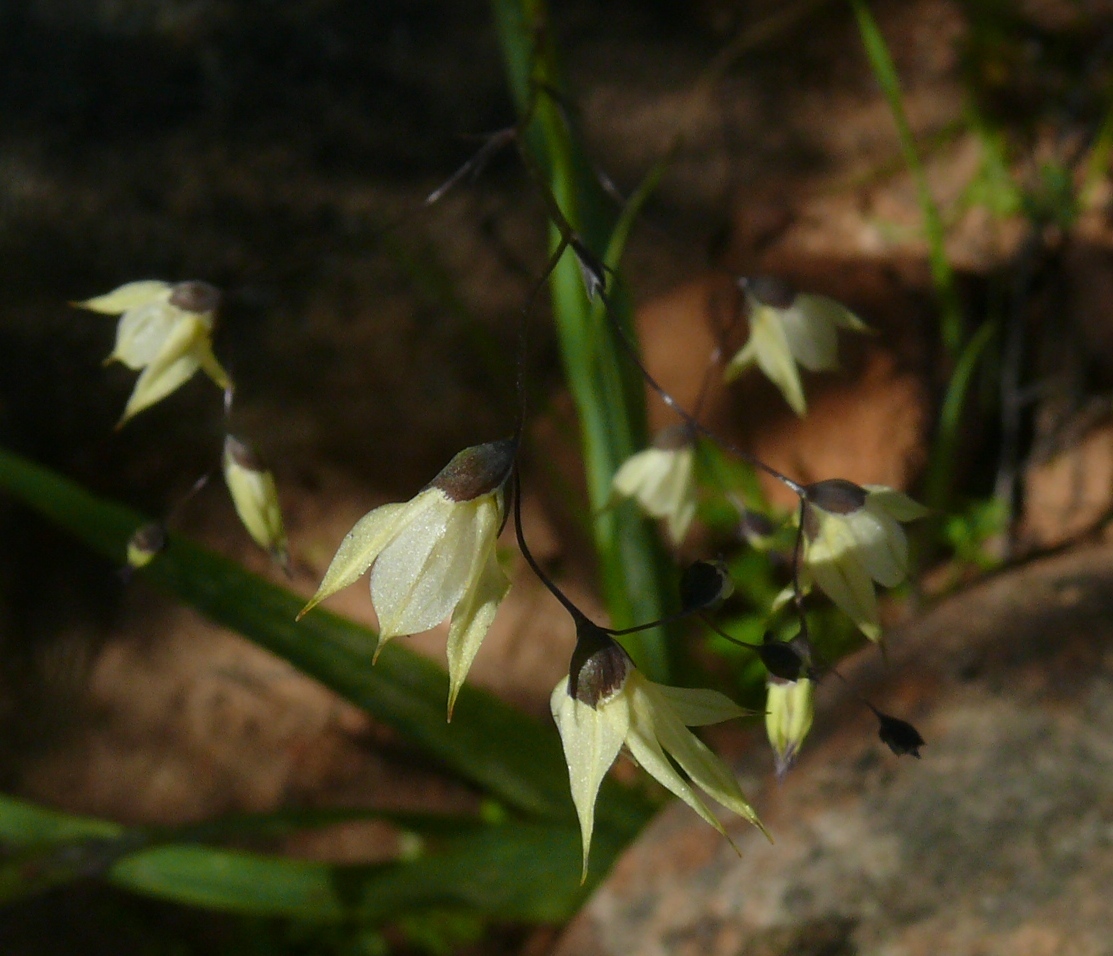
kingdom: Plantae
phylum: Tracheophyta
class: Liliopsida
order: Asparagales
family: Iridaceae
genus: Melasphaerula
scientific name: Melasphaerula graminea
